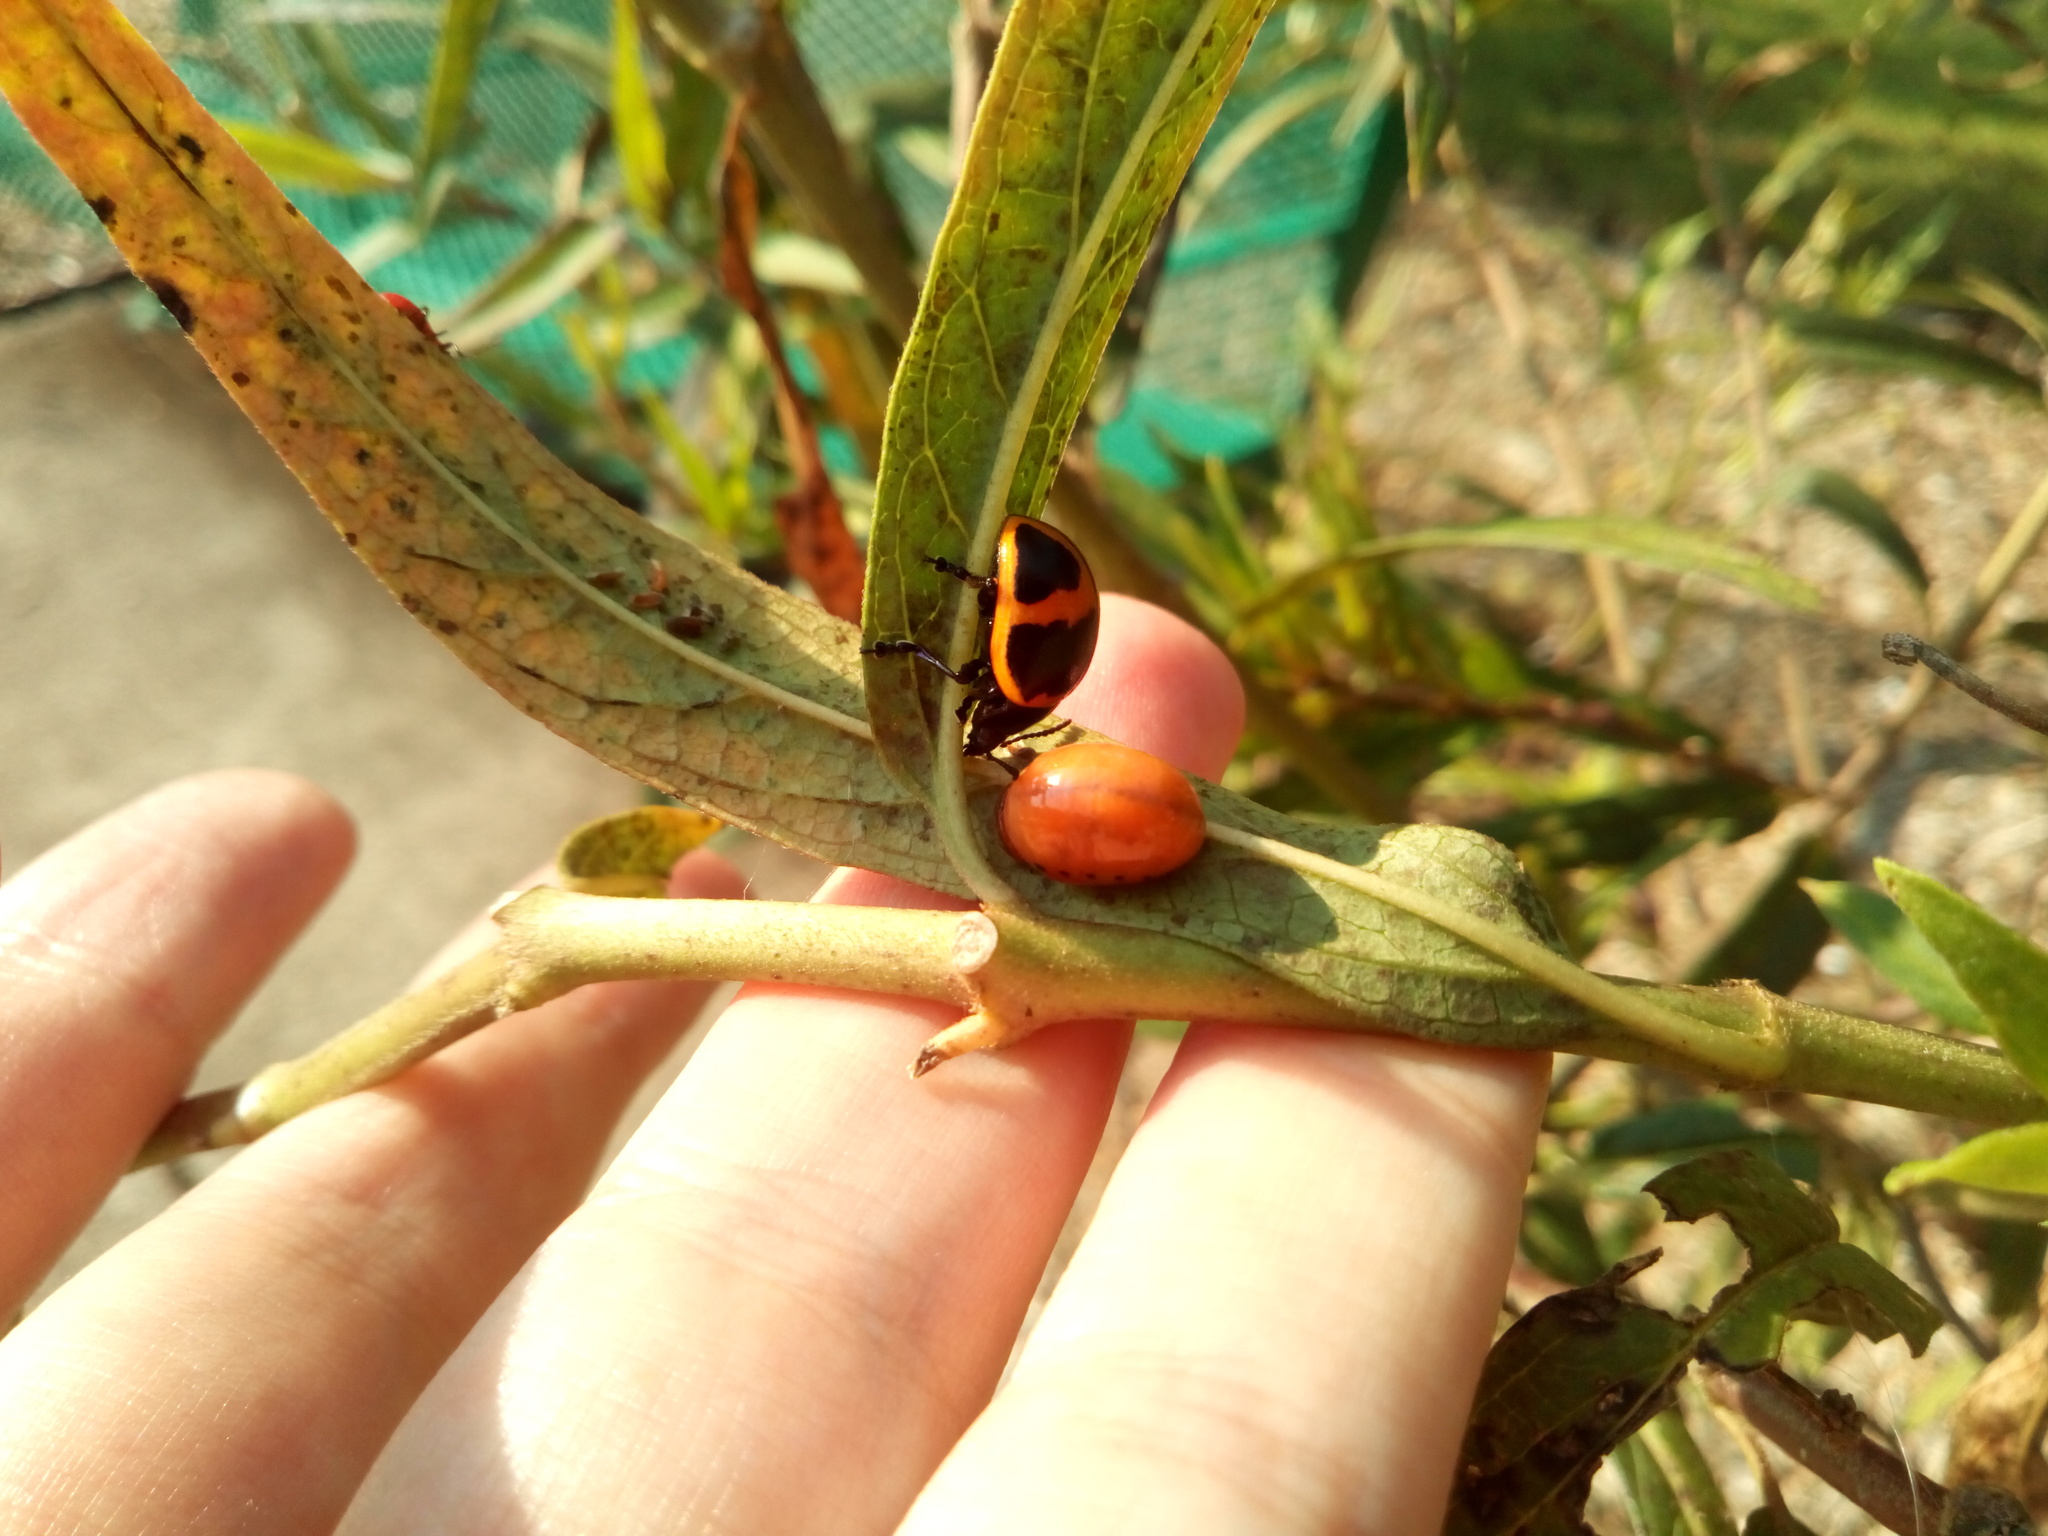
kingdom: Animalia
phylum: Arthropoda
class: Insecta
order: Coleoptera
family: Chrysomelidae
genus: Labidomera
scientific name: Labidomera clivicollis
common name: Swamp milkweed leaf beetle
